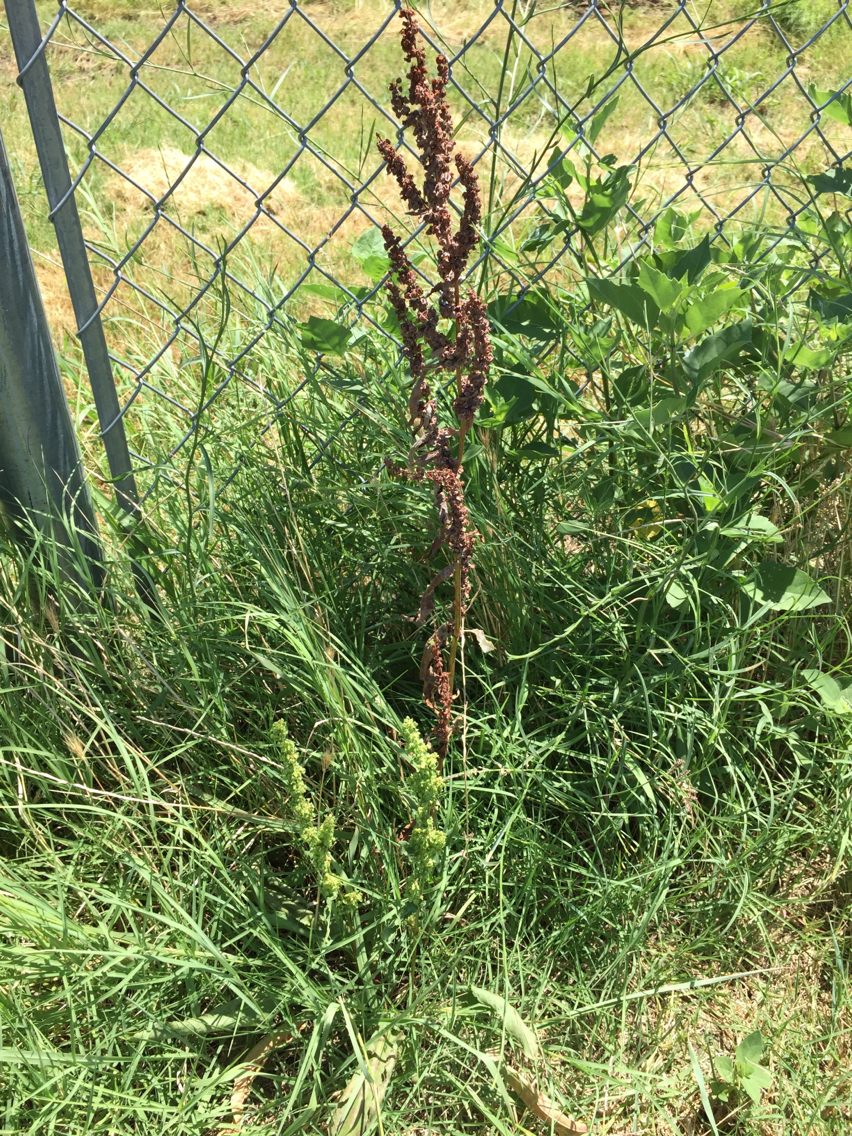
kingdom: Plantae
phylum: Tracheophyta
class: Magnoliopsida
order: Caryophyllales
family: Polygonaceae
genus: Rumex
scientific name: Rumex crispus
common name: Curled dock
